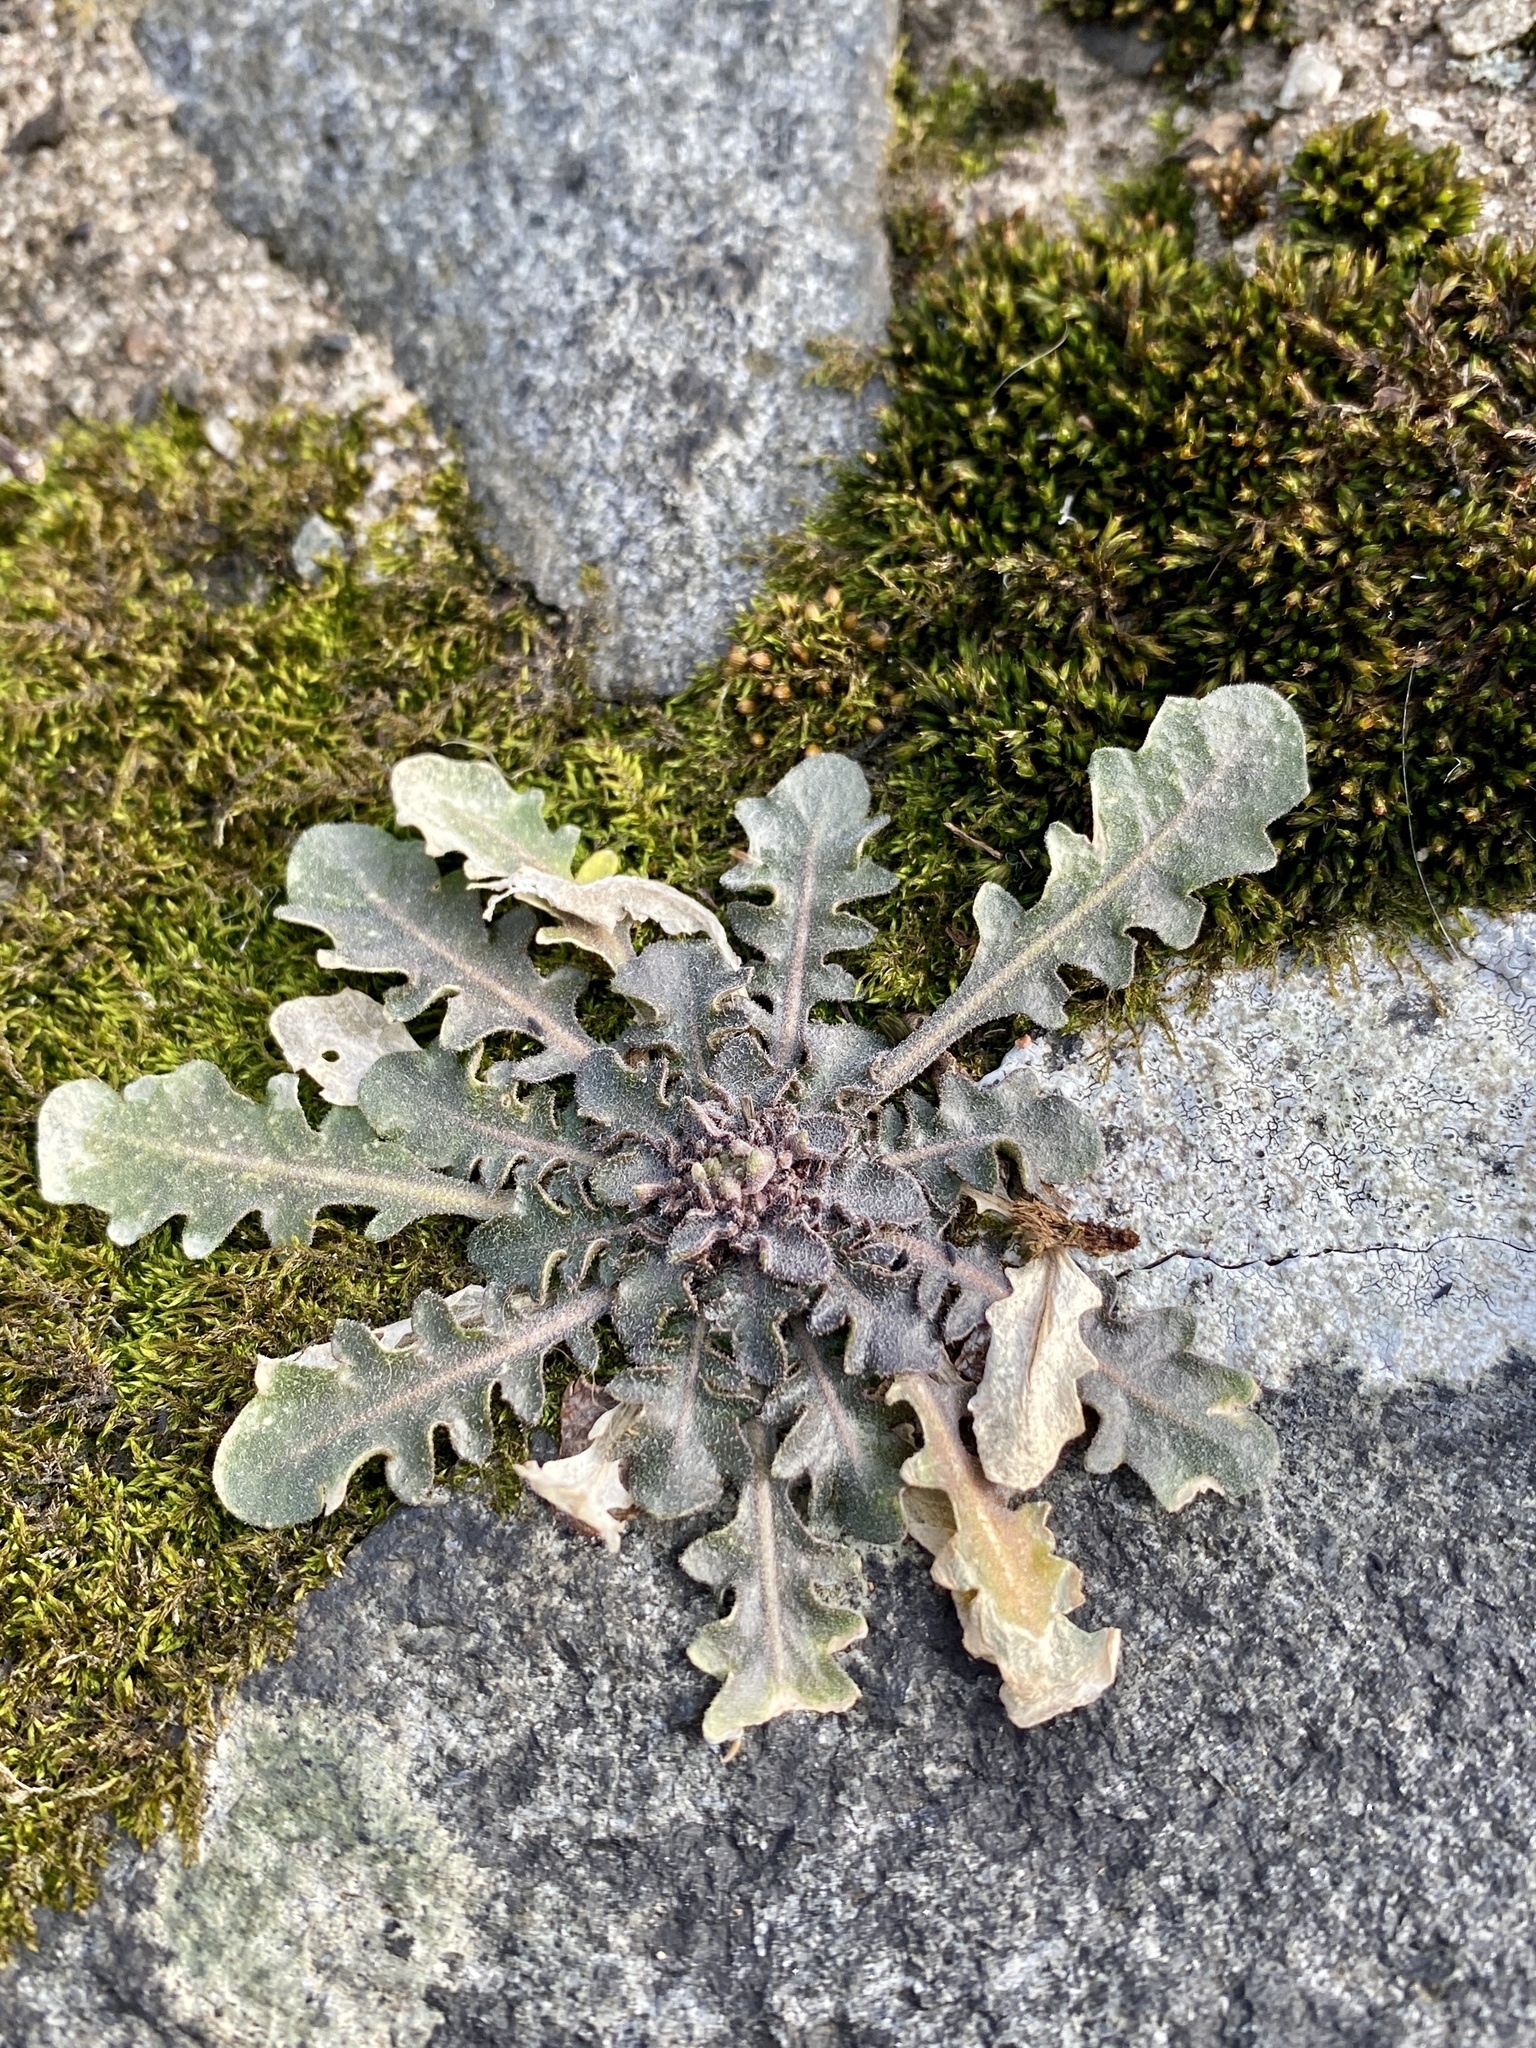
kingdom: Plantae
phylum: Tracheophyta
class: Magnoliopsida
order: Brassicales
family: Brassicaceae
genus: Arabidopsis
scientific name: Arabidopsis lyrata
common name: Lyrate rockcress
